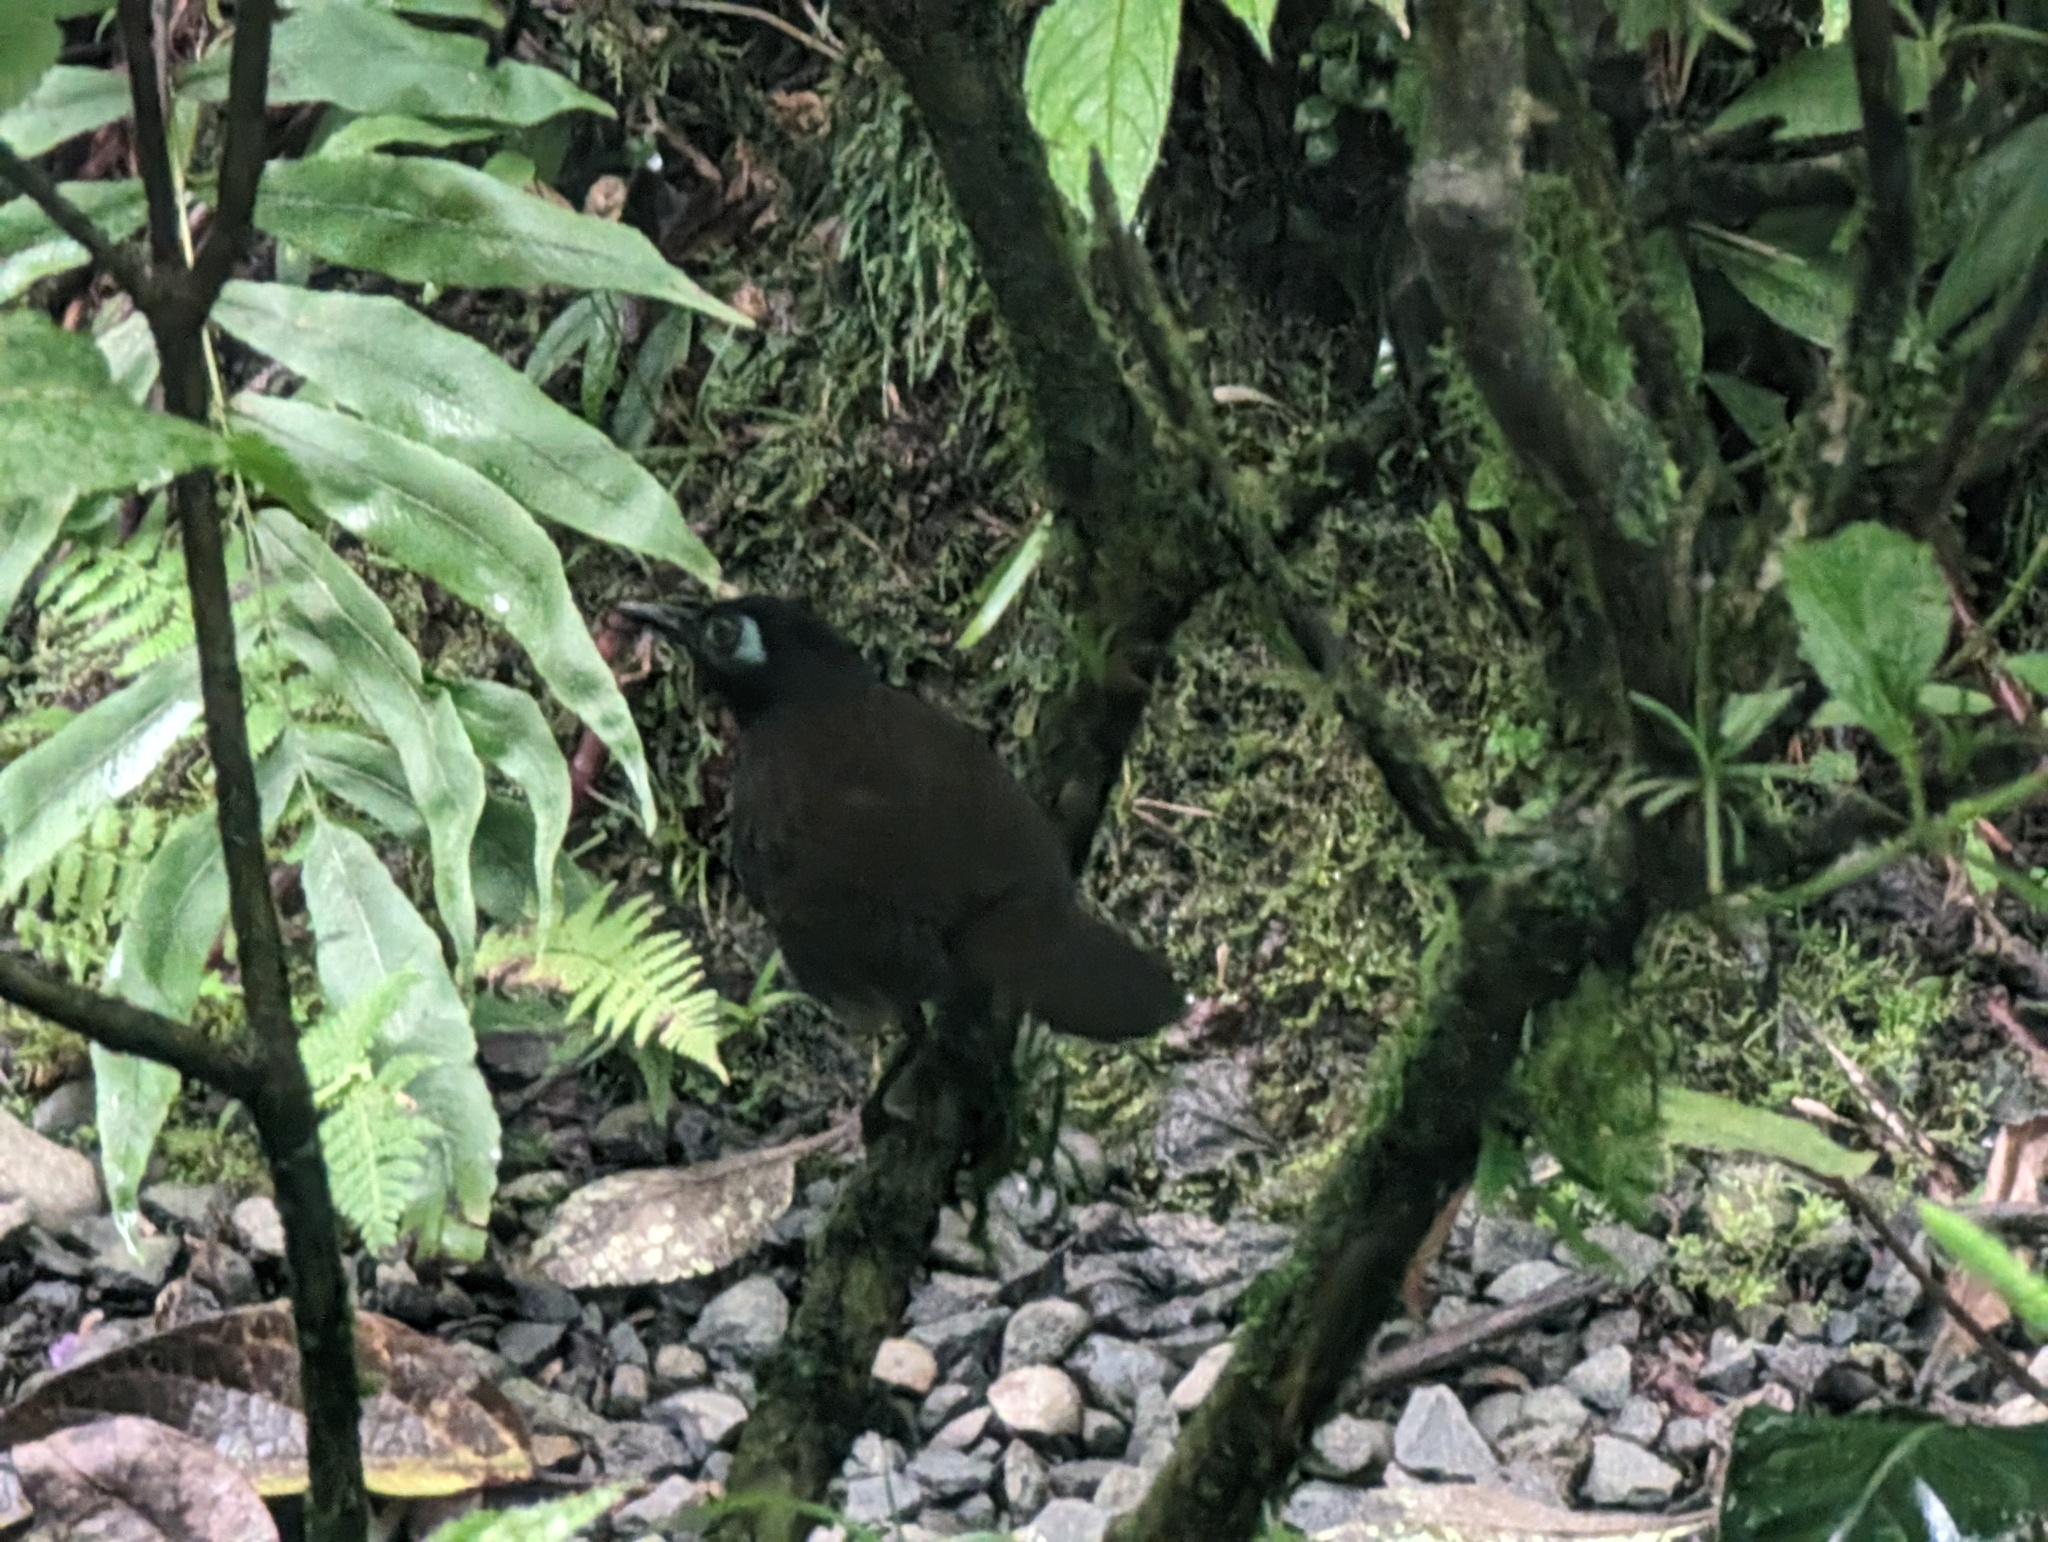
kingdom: Animalia
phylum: Chordata
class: Aves
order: Passeriformes
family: Thamnophilidae
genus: Hafferia
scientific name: Hafferia zeledoni
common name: Zeledon's antbird
